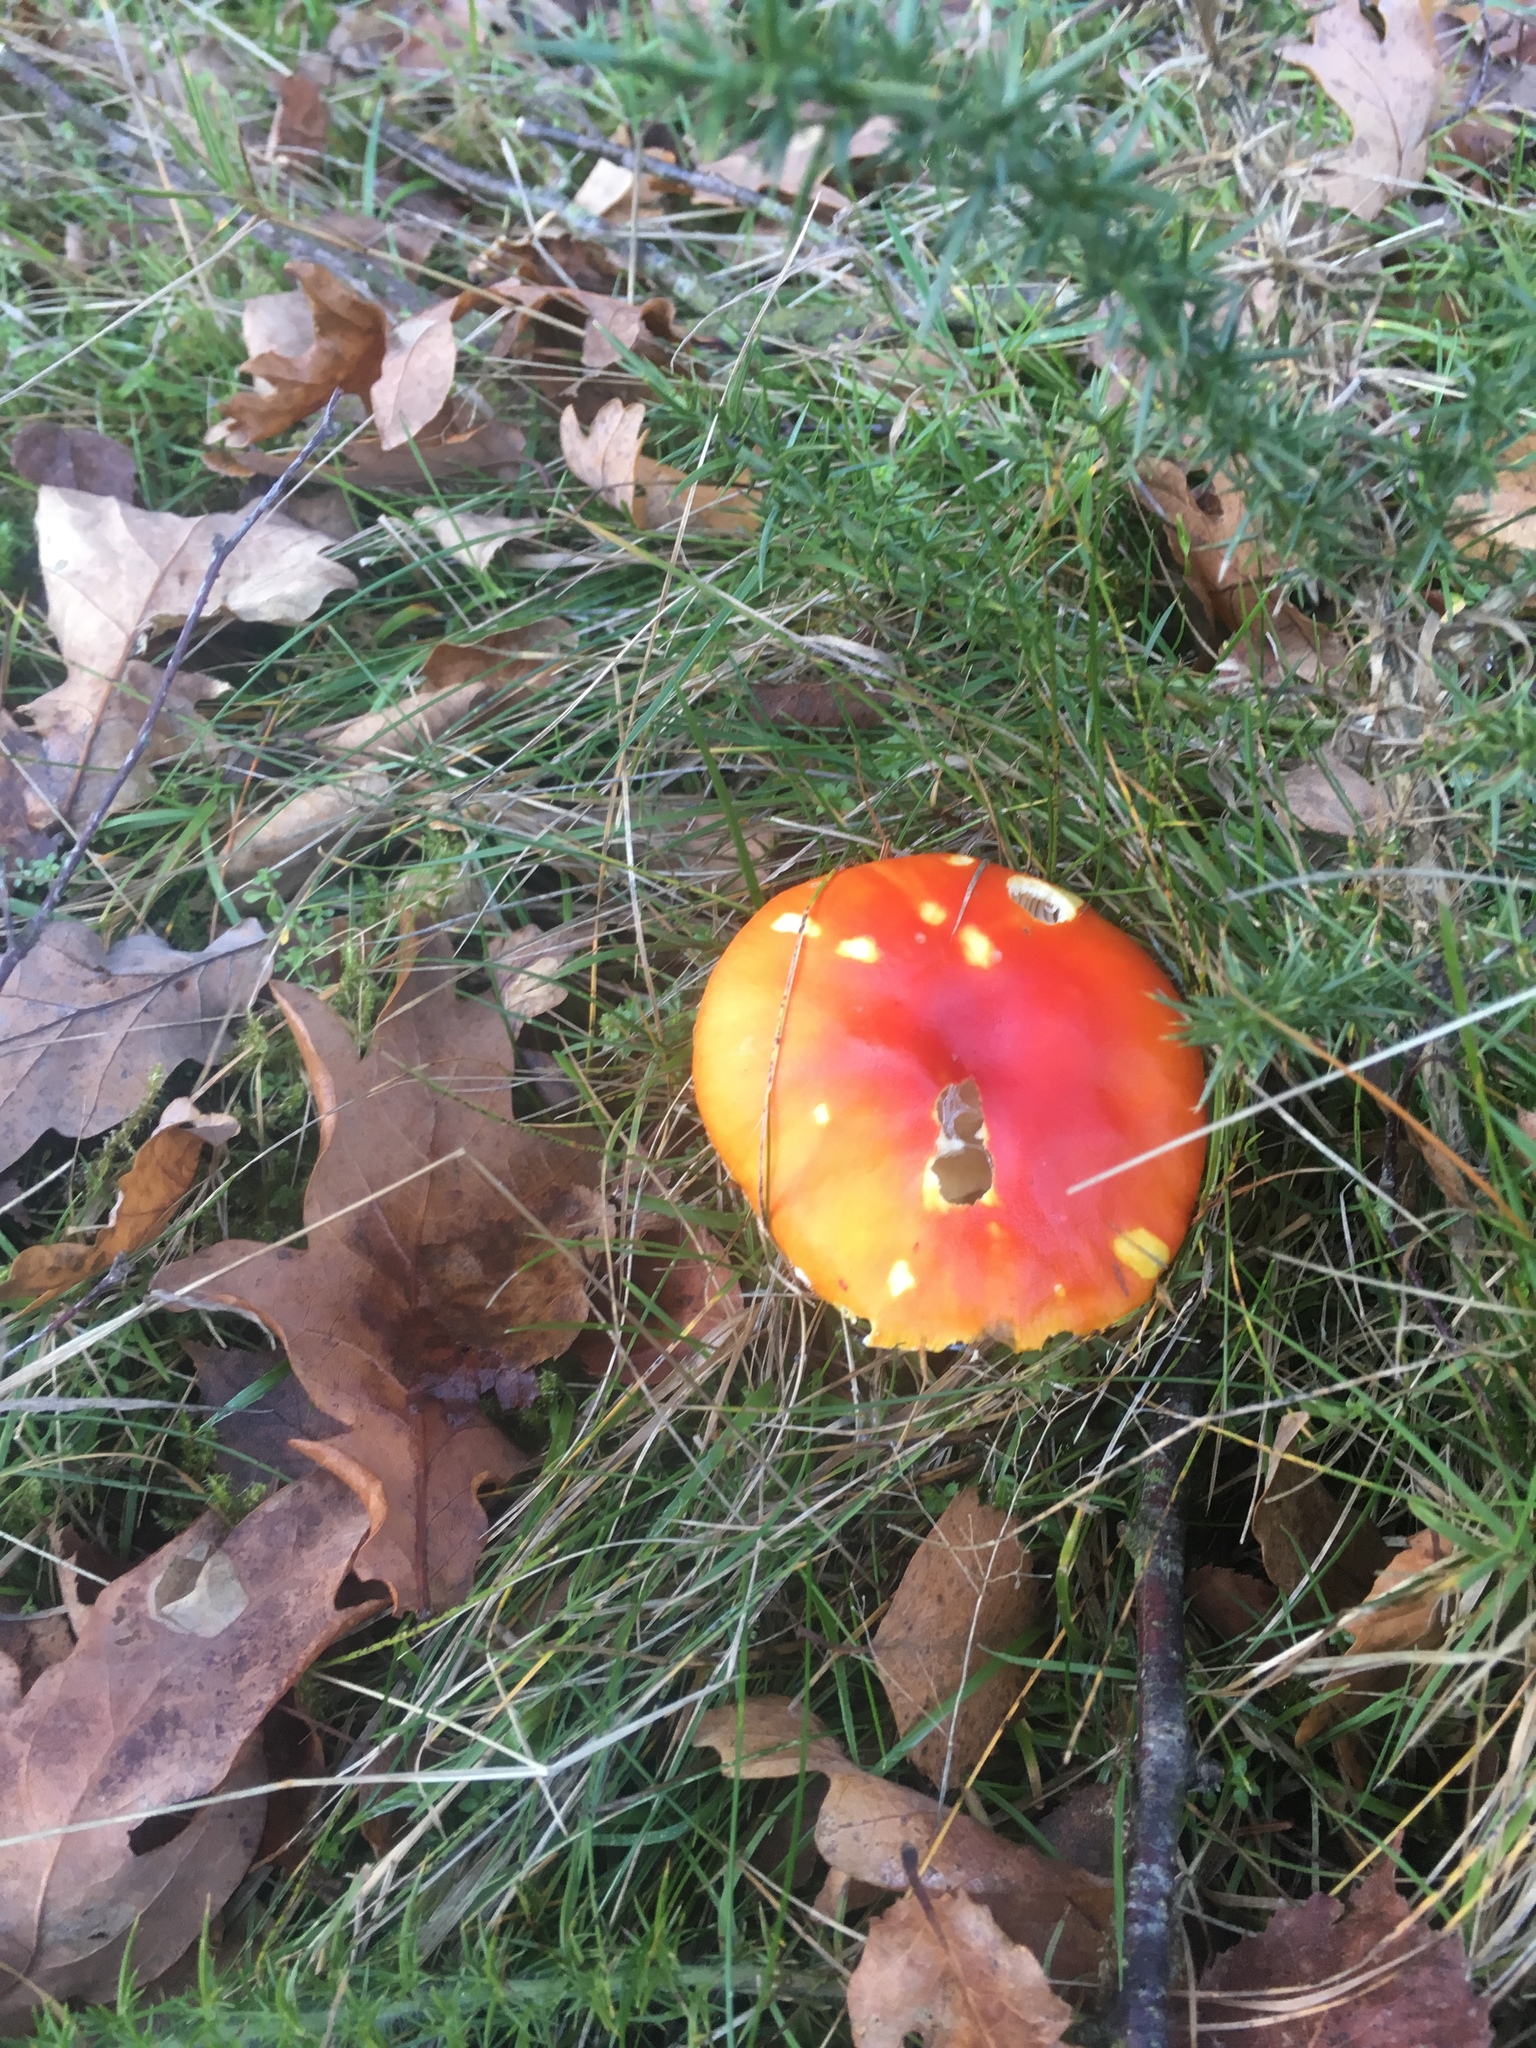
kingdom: Fungi
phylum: Basidiomycota
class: Agaricomycetes
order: Agaricales
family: Amanitaceae
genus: Amanita
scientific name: Amanita muscaria
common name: Fly agaric
